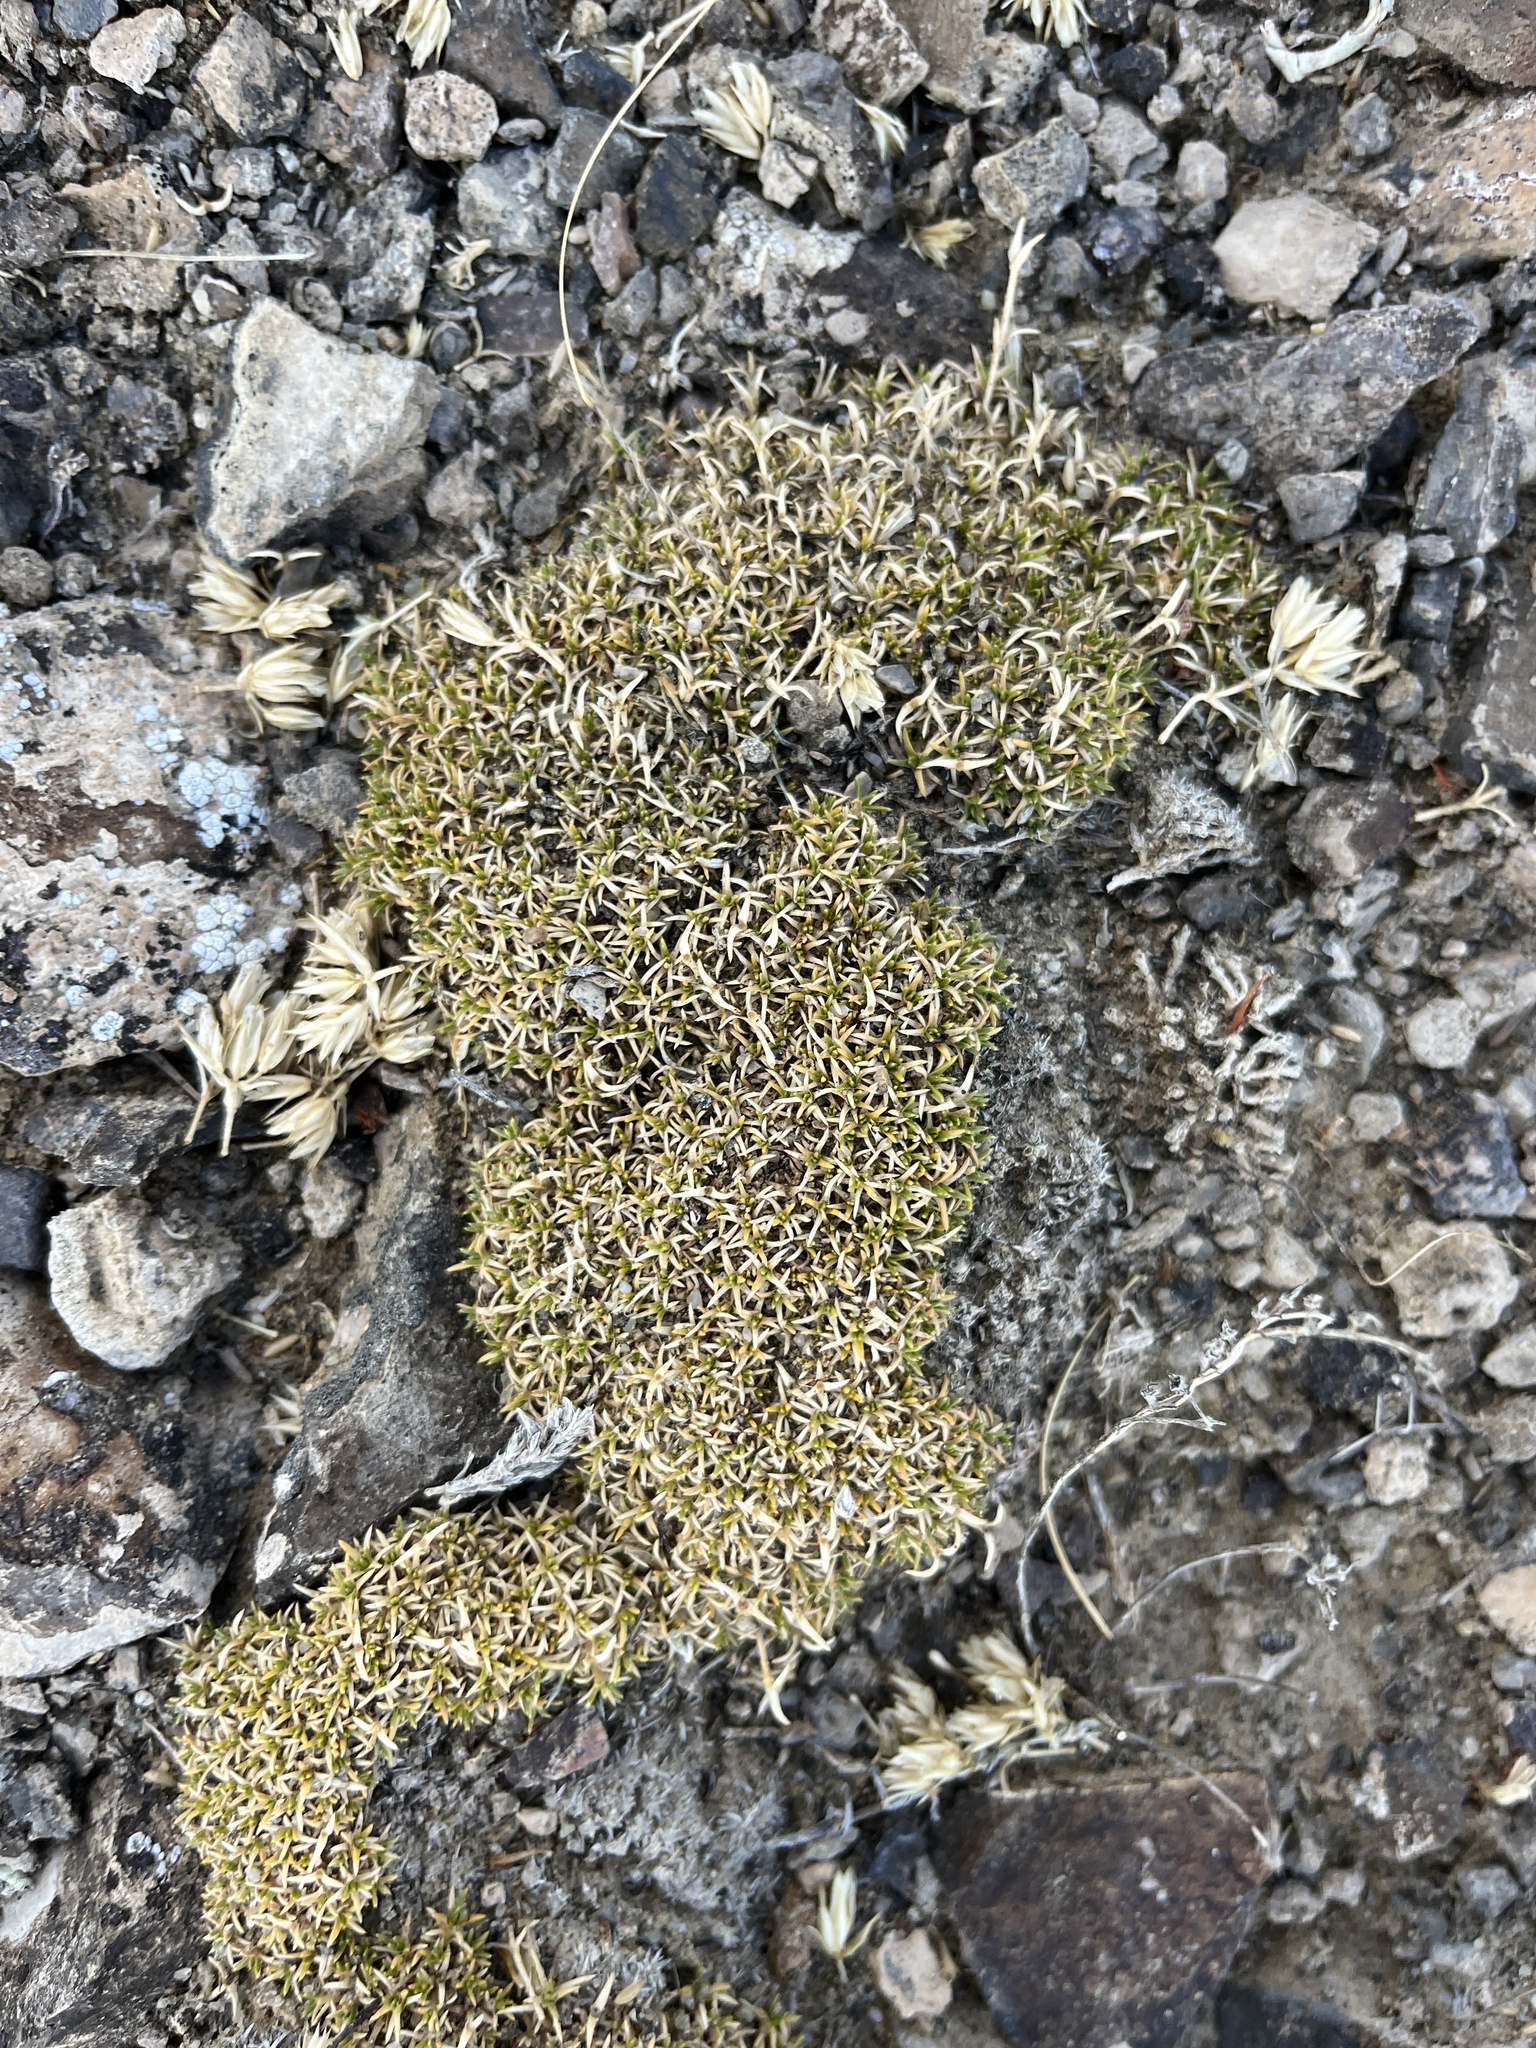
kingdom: Plantae
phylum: Tracheophyta
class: Magnoliopsida
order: Caryophyllales
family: Caryophyllaceae
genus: Eremogone
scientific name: Eremogone hookeri
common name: Hooker's sandwort
